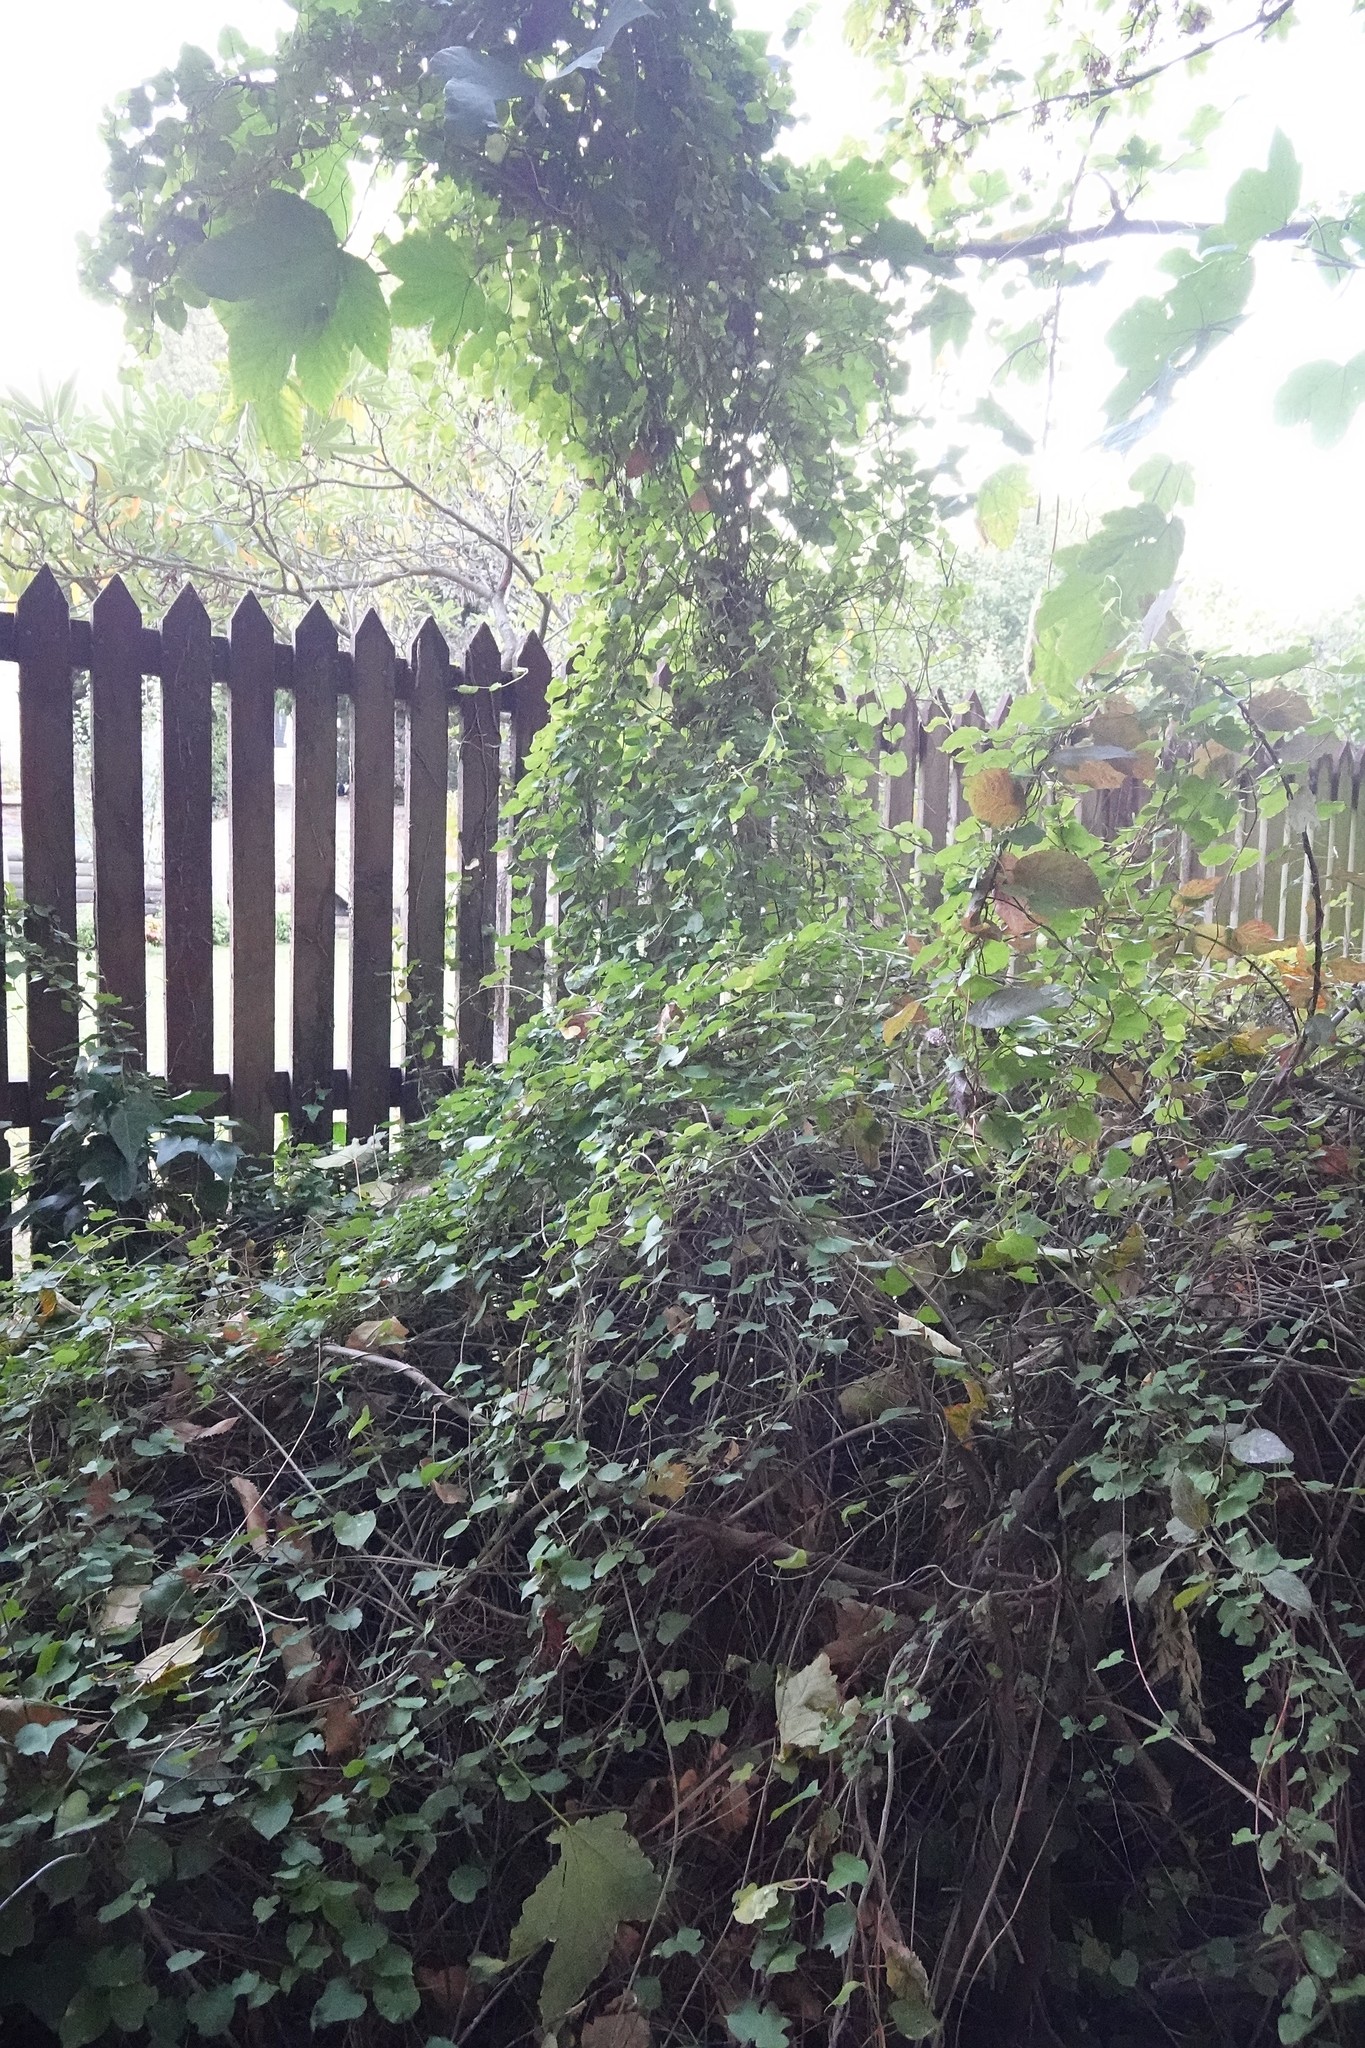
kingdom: Plantae
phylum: Tracheophyta
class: Magnoliopsida
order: Caryophyllales
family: Polygonaceae
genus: Muehlenbeckia
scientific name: Muehlenbeckia australis
